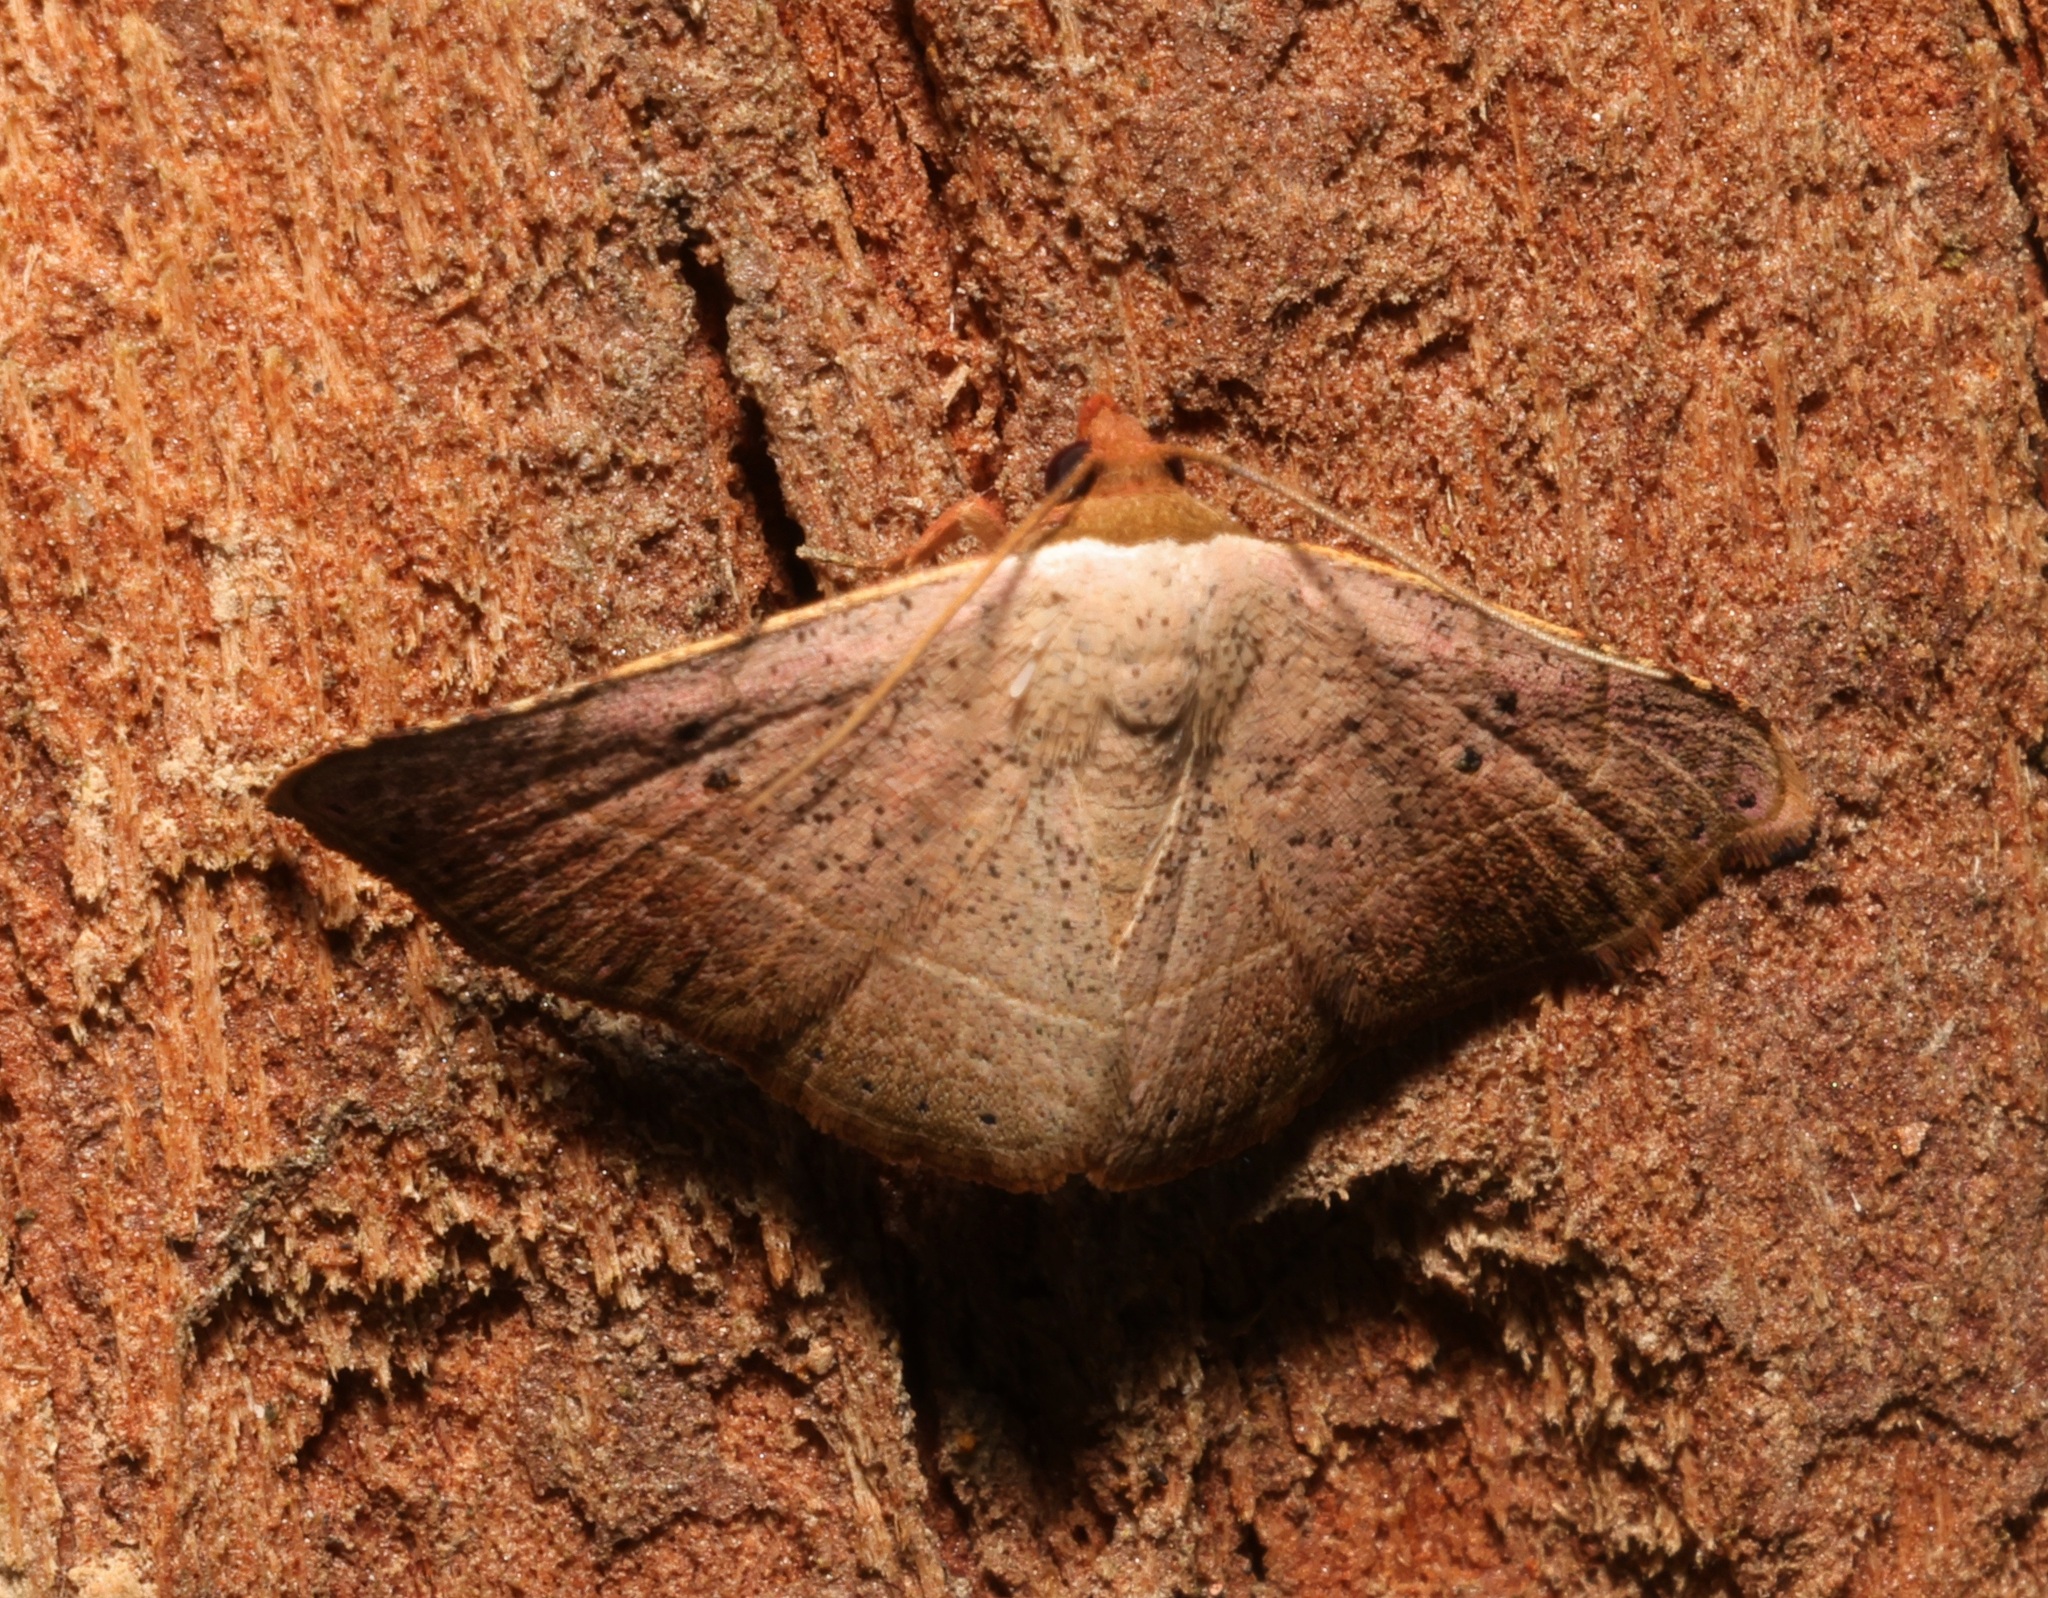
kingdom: Animalia
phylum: Arthropoda
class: Insecta
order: Lepidoptera
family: Erebidae
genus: Laspeyria
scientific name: Laspeyria ruficeps
